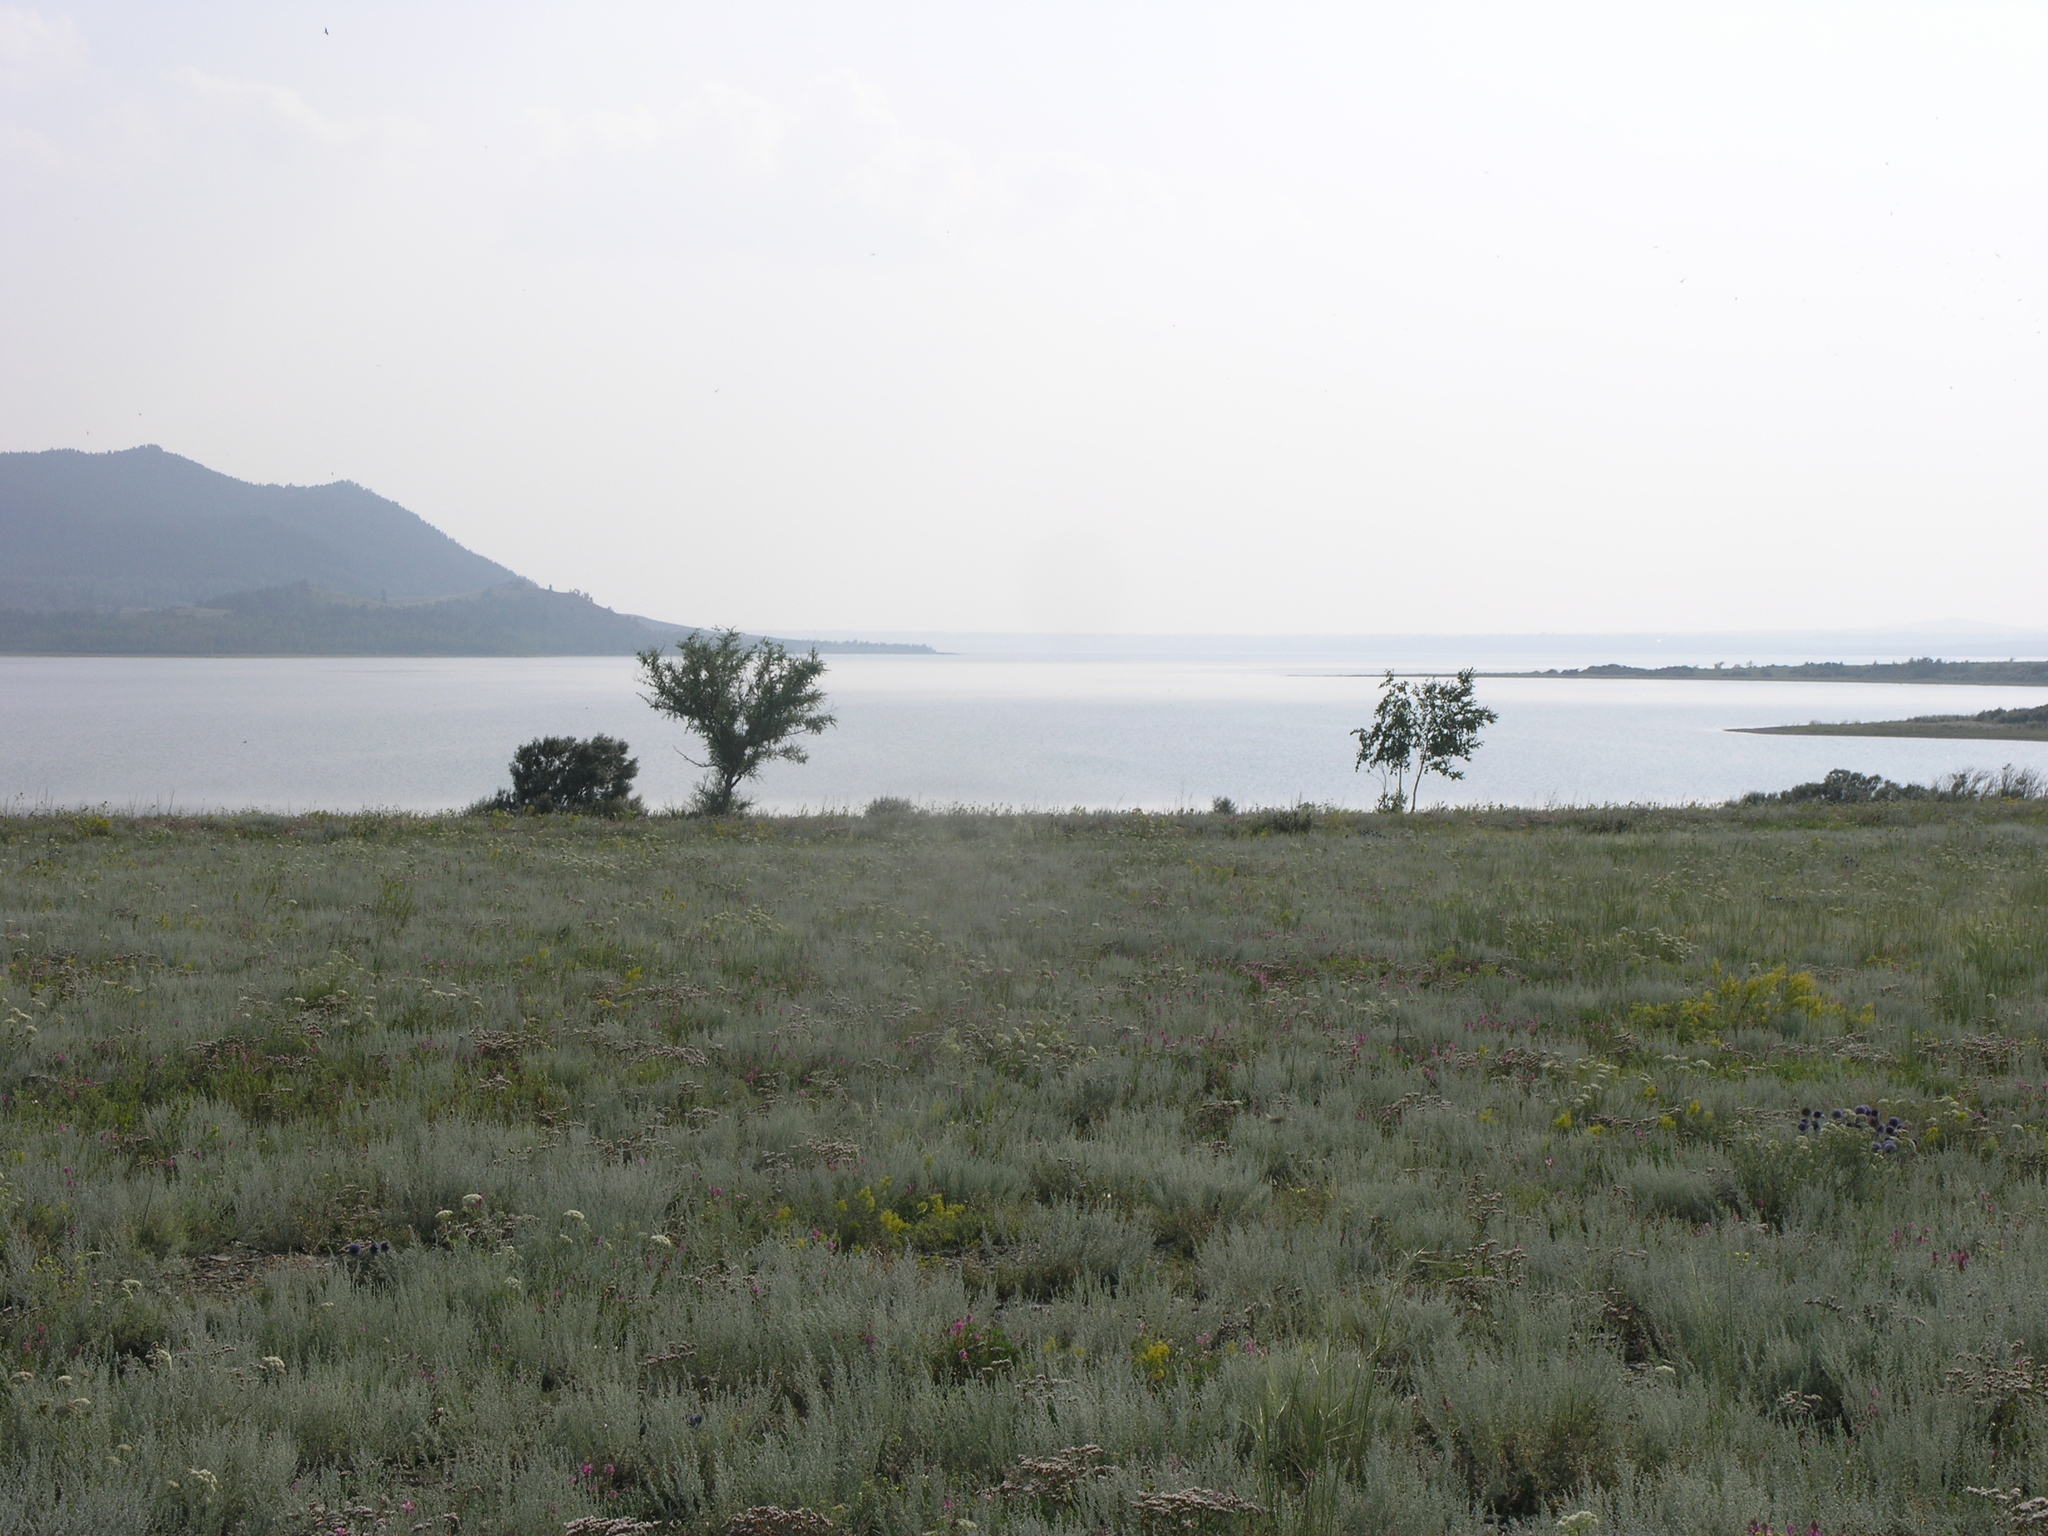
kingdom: Plantae
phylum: Tracheophyta
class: Magnoliopsida
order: Rosales
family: Ulmaceae
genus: Ulmus
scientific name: Ulmus pumila
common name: Siberian elm
